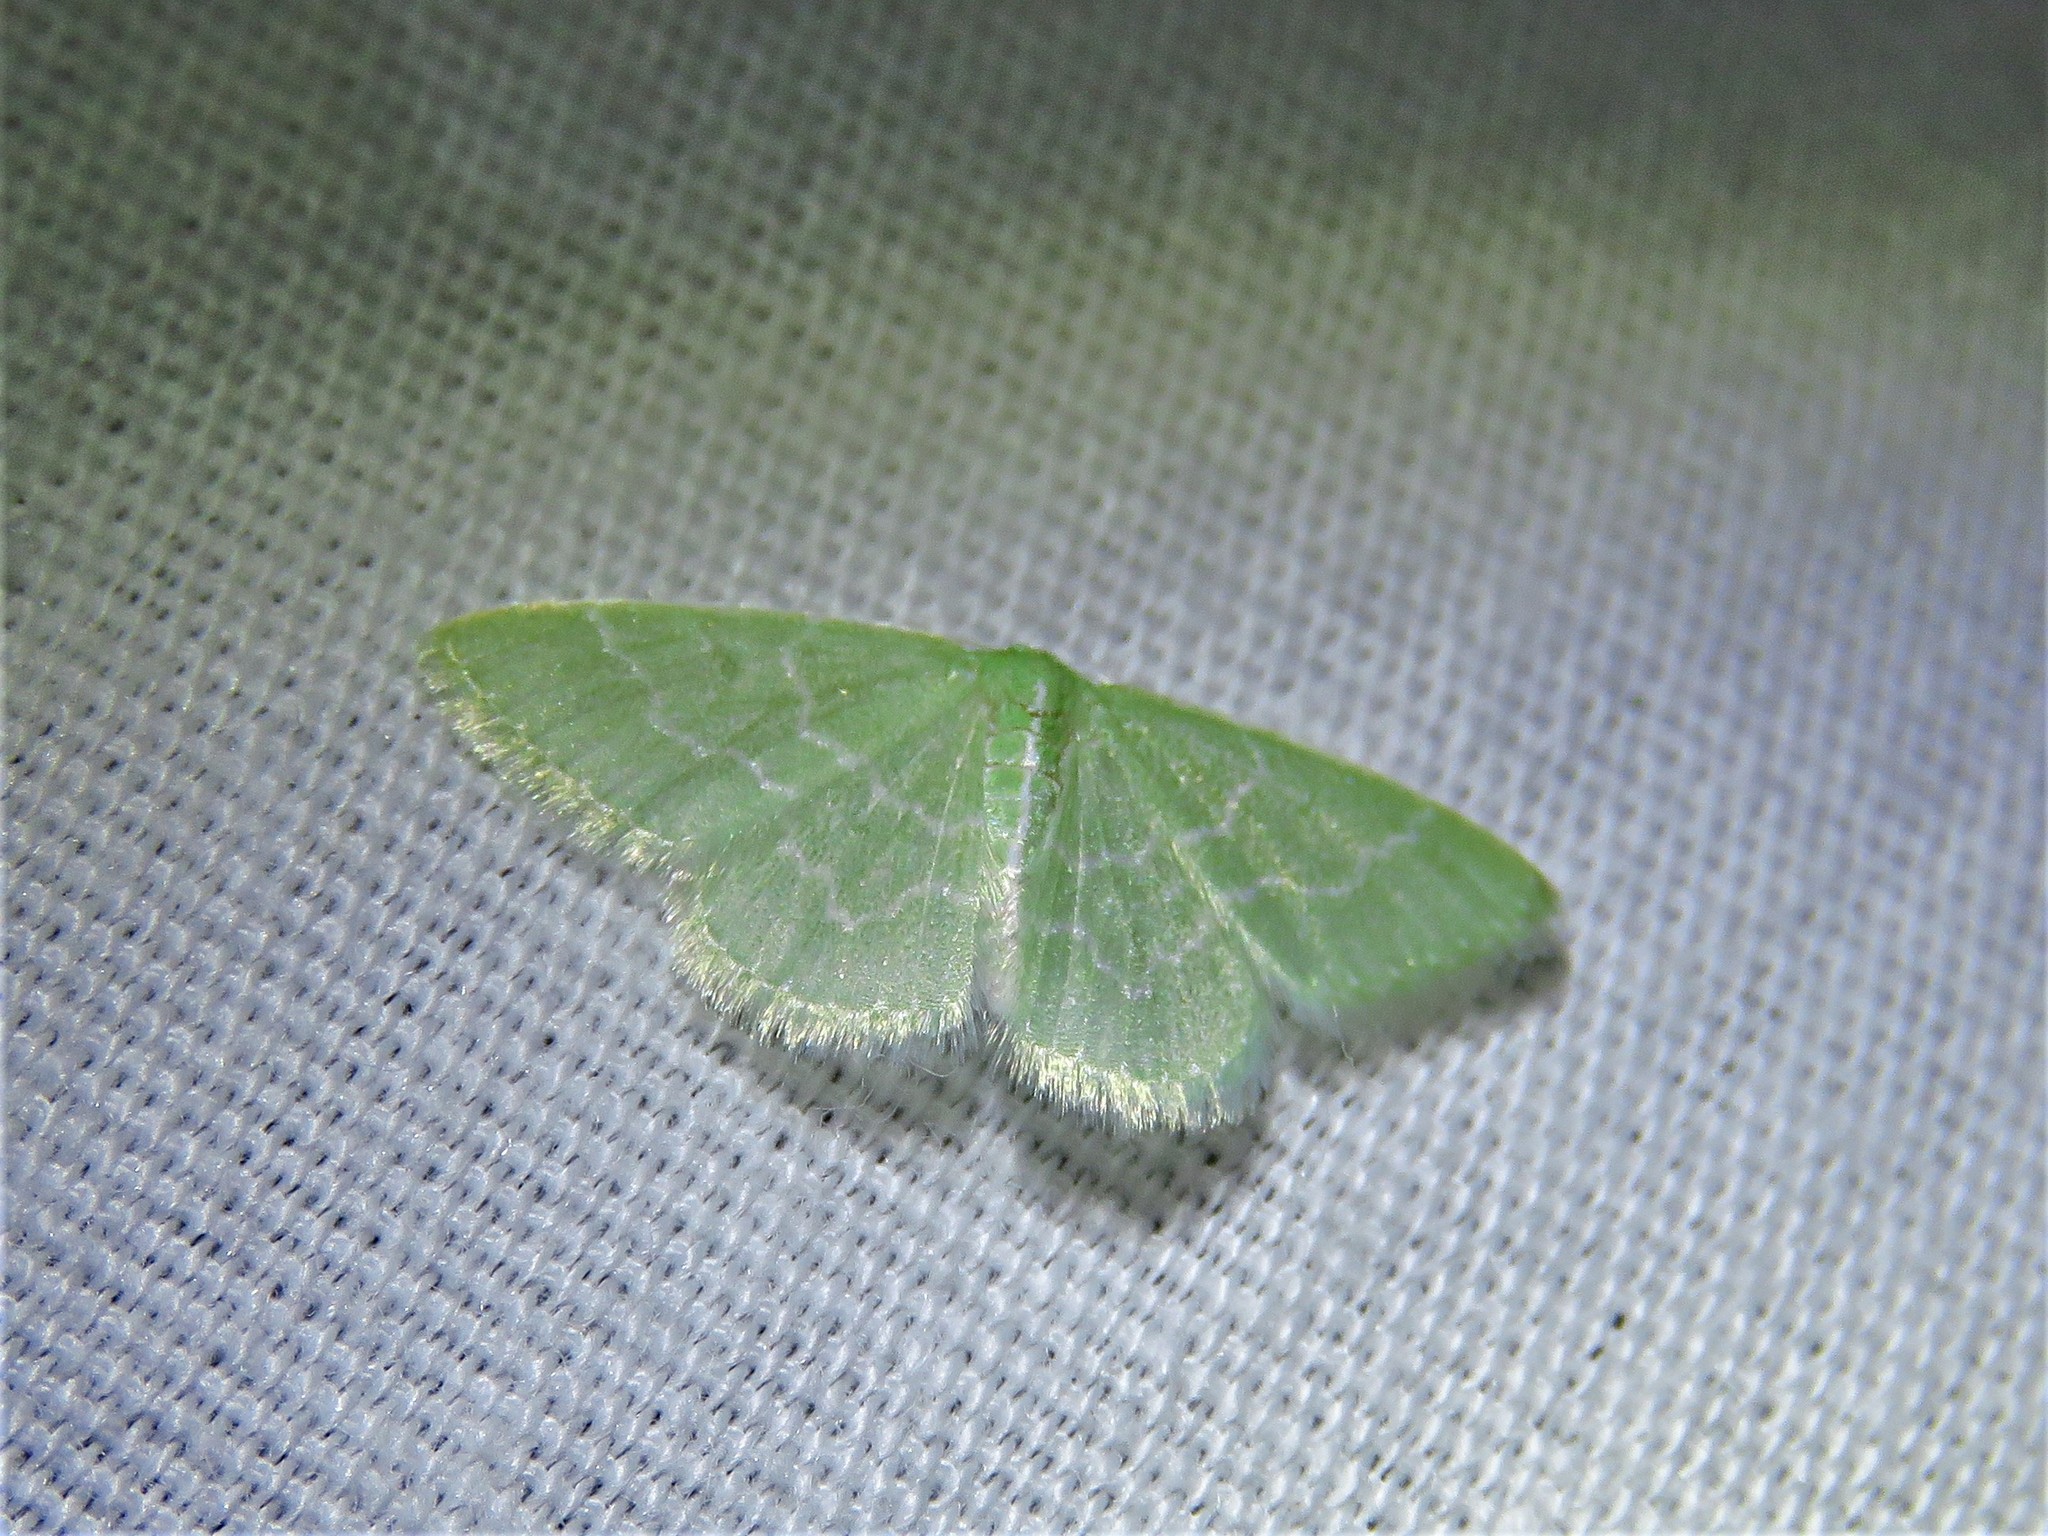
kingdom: Animalia
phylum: Arthropoda
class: Insecta
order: Lepidoptera
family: Geometridae
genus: Synchlora
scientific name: Synchlora frondaria
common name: Southern emerald
